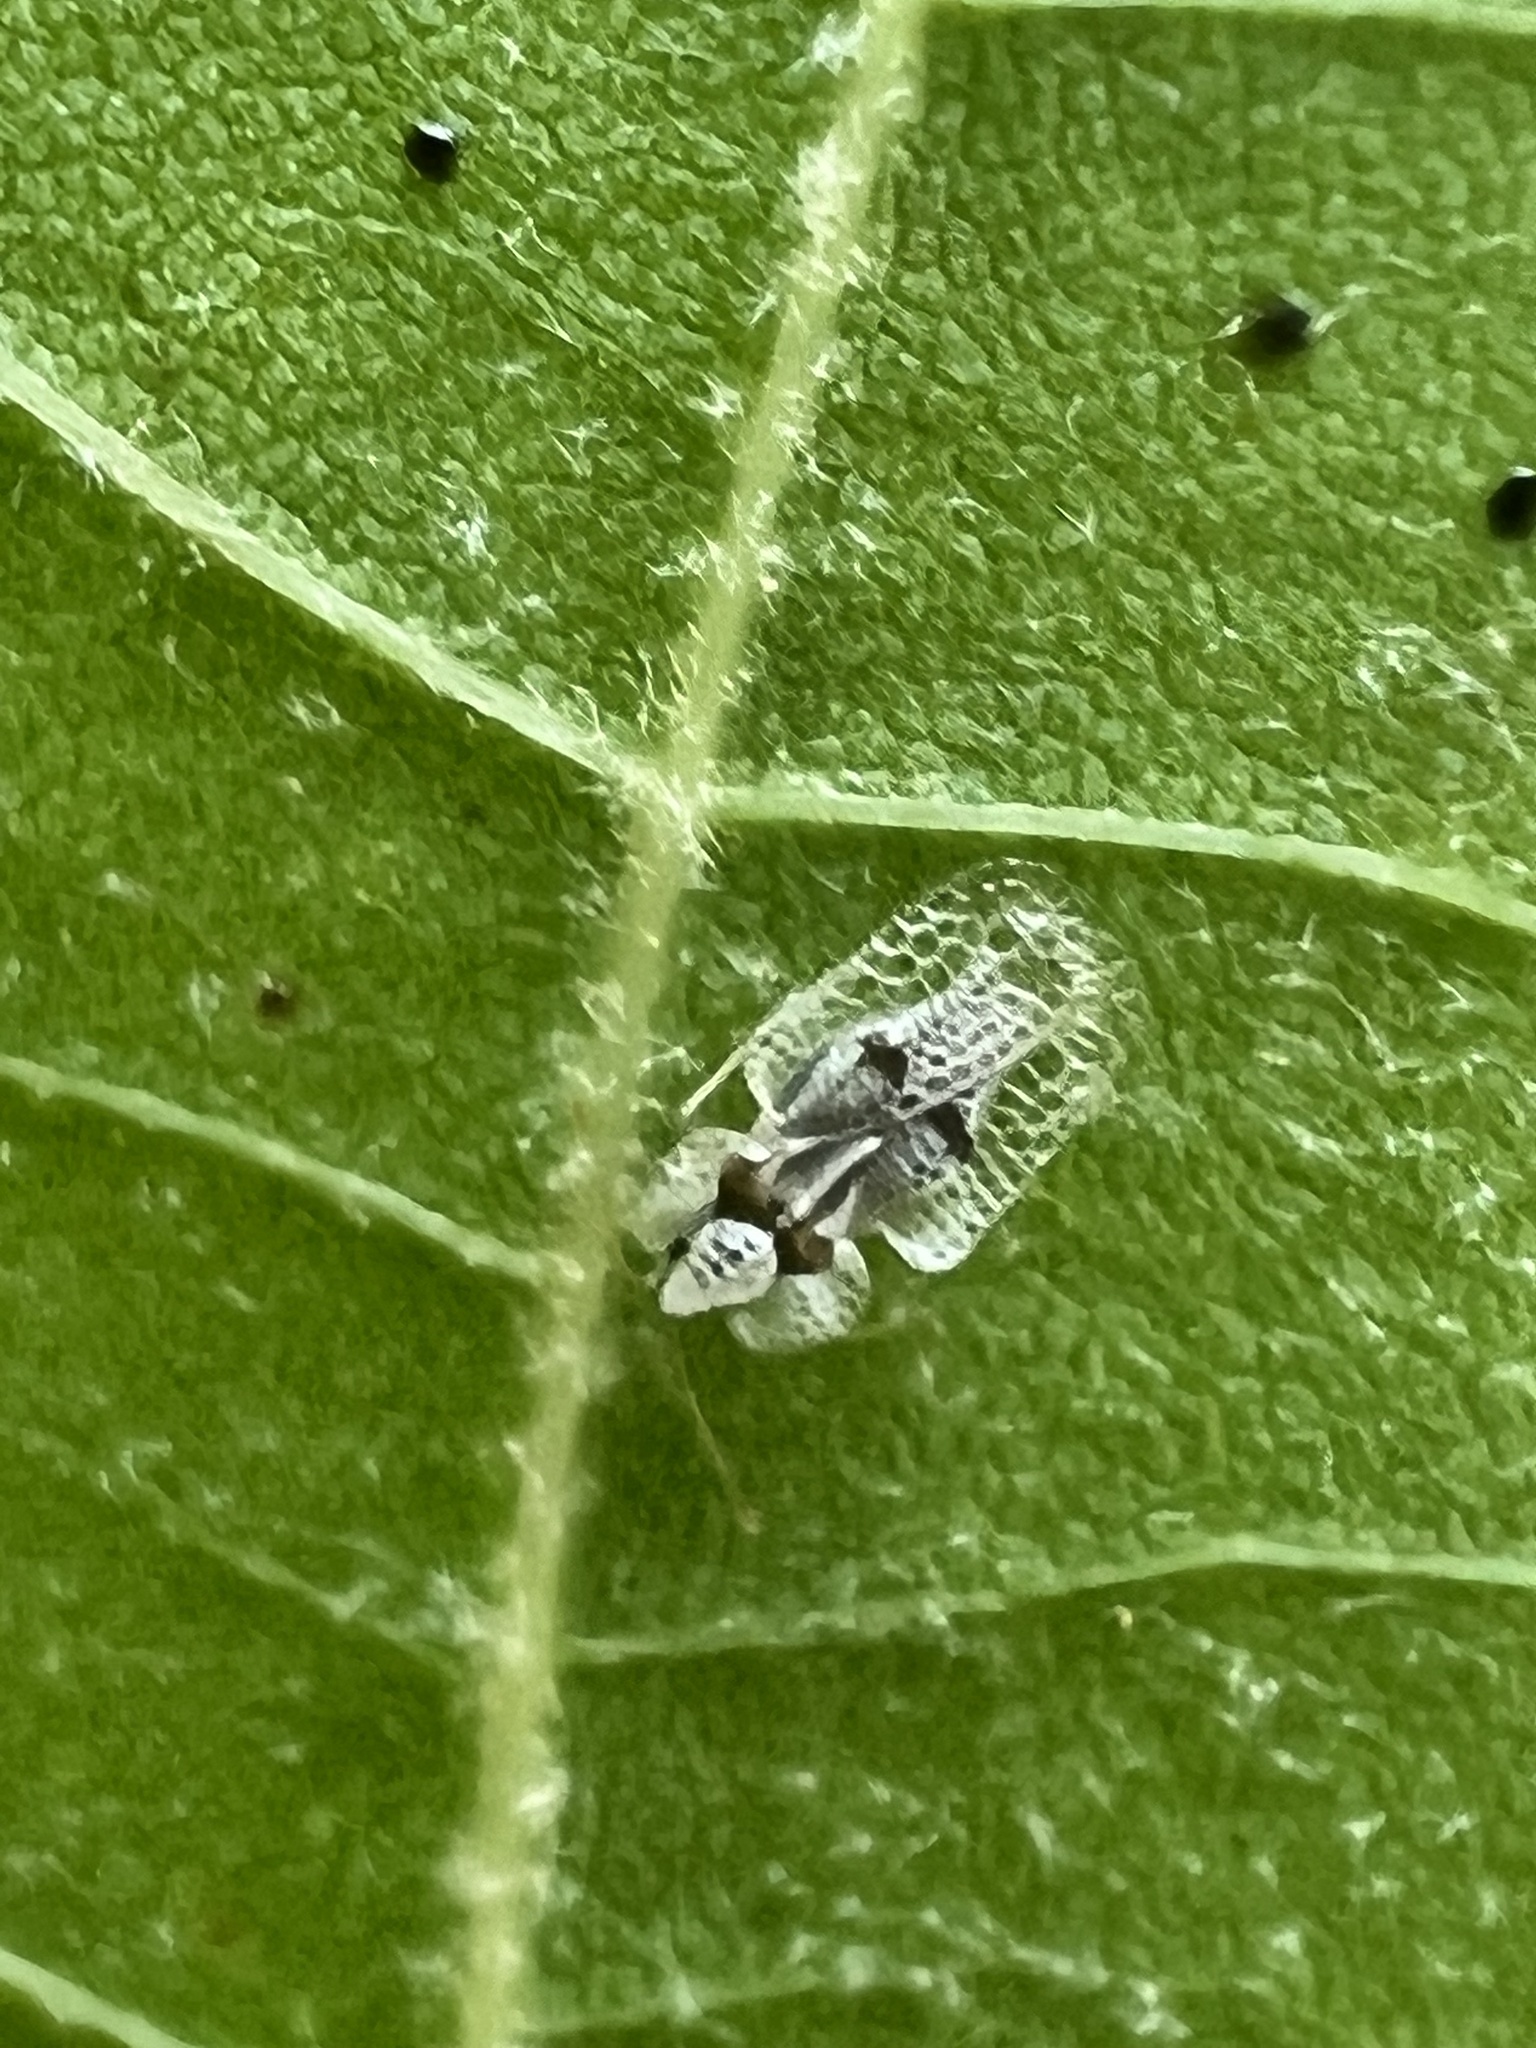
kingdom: Animalia
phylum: Arthropoda
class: Insecta
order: Hemiptera
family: Tingidae
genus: Corythucha
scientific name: Corythucha ciliata
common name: Sycamore lace bug
